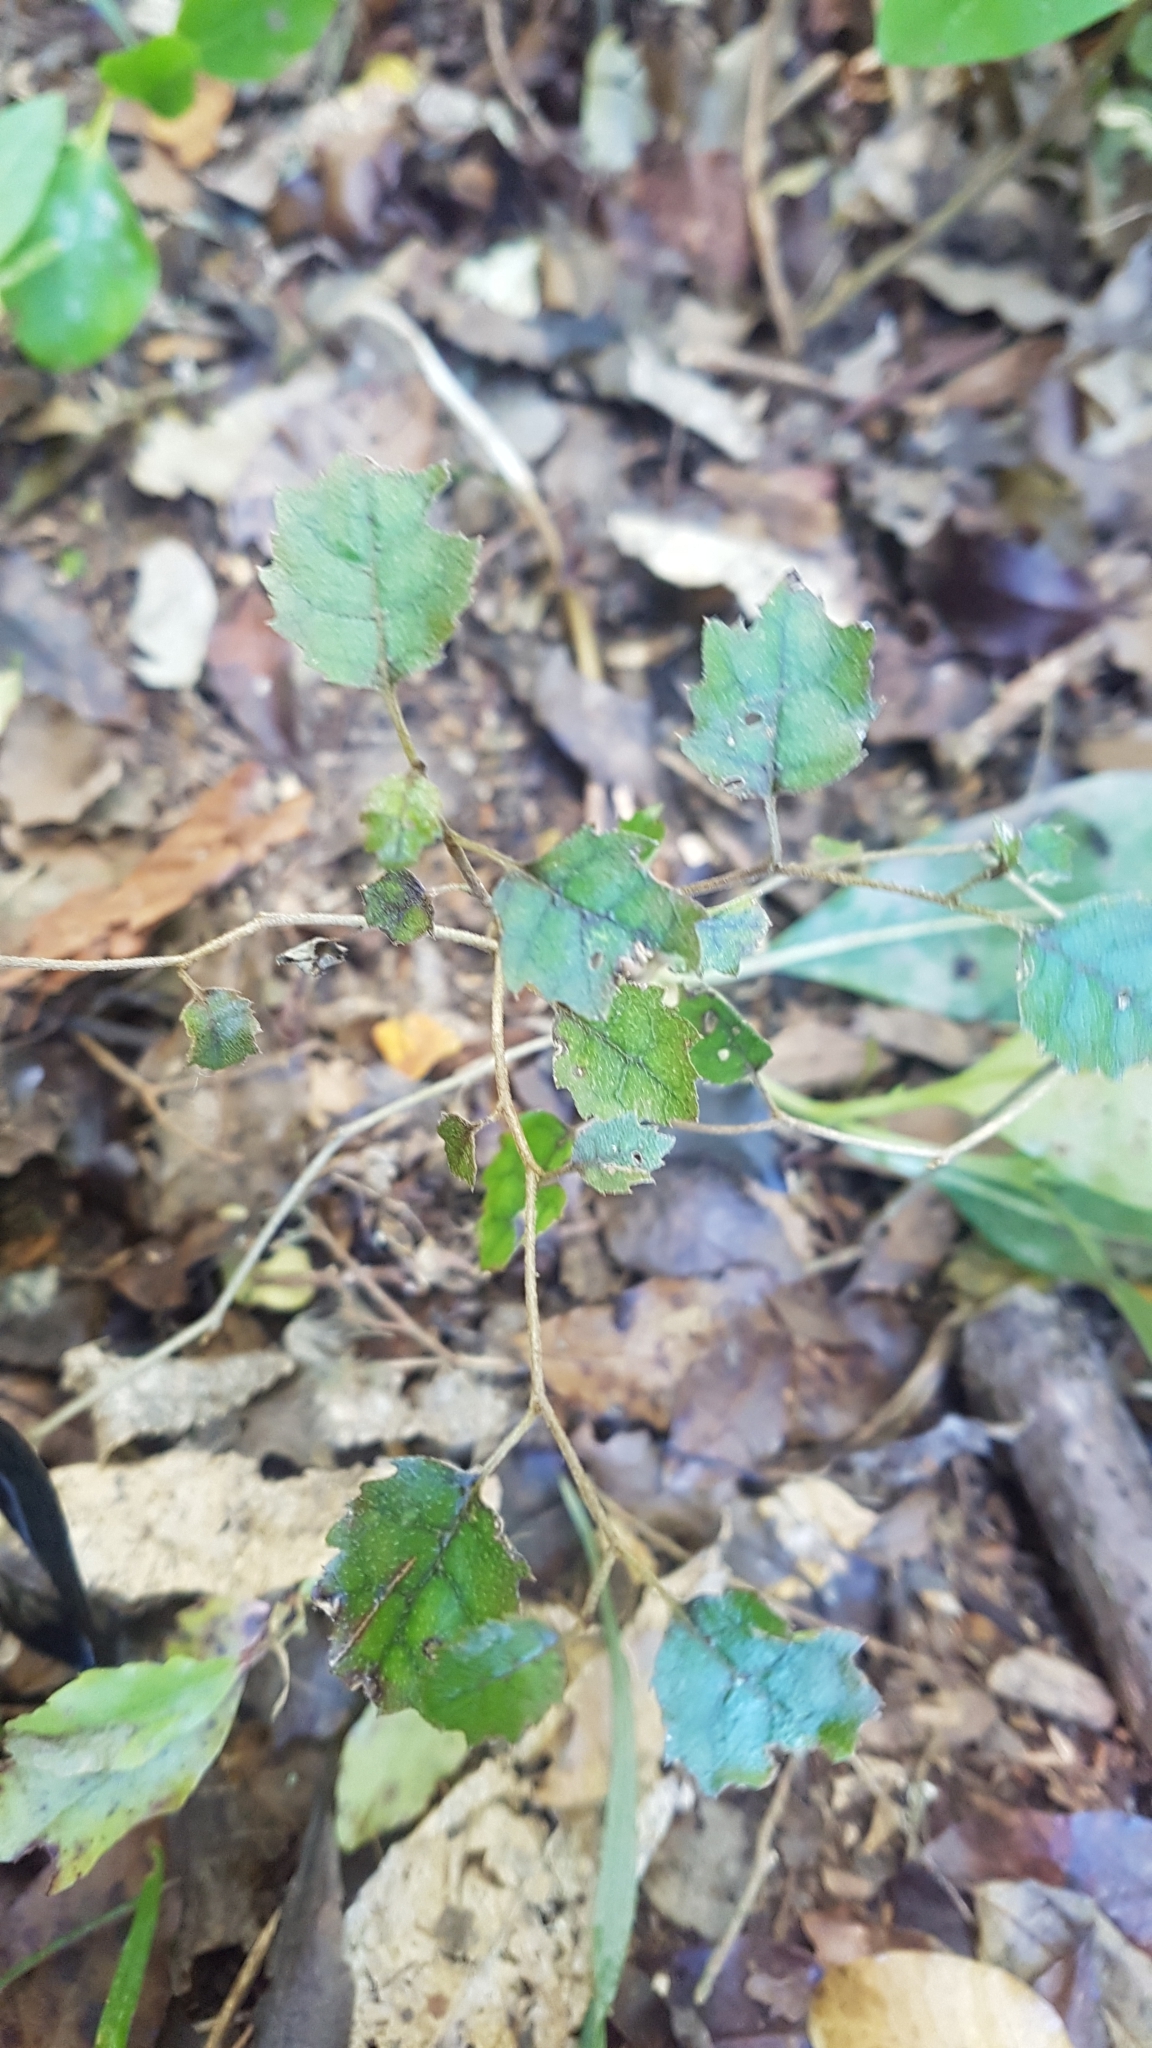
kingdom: Plantae
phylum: Tracheophyta
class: Magnoliopsida
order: Asterales
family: Rousseaceae
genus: Carpodetus
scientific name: Carpodetus serratus
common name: White mapau
